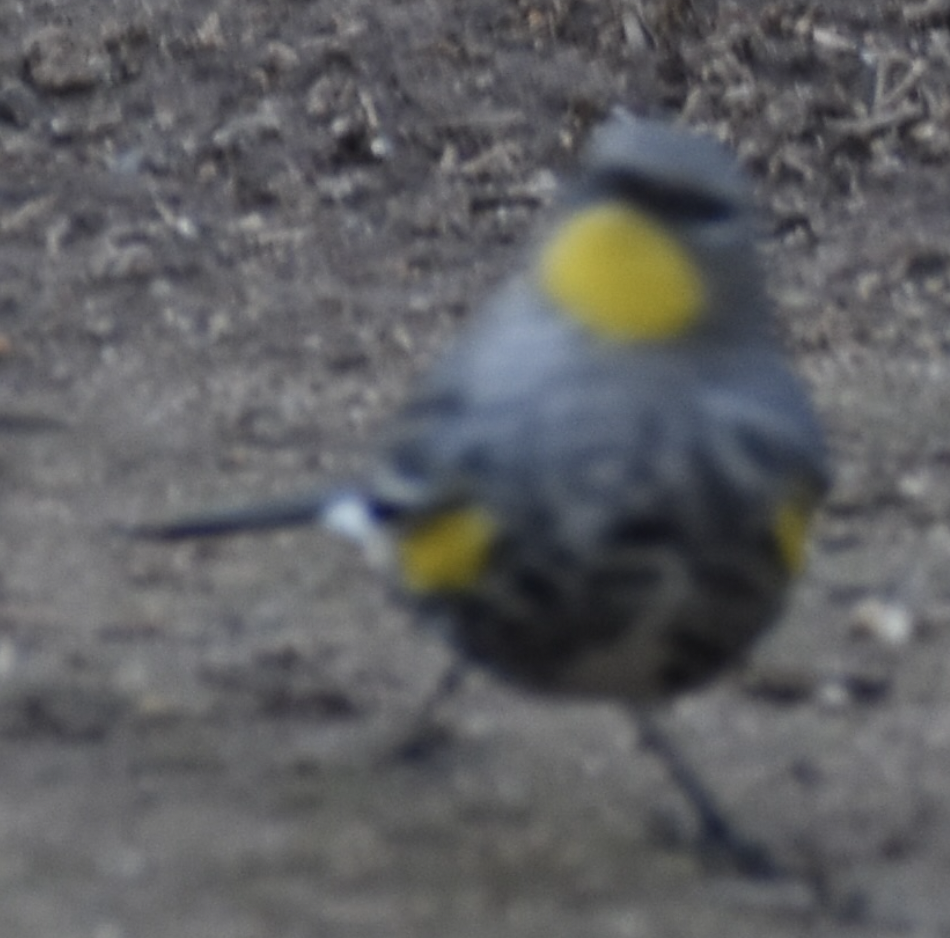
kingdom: Animalia
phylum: Chordata
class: Aves
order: Passeriformes
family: Parulidae
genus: Setophaga
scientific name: Setophaga auduboni
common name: Audubon's warbler
